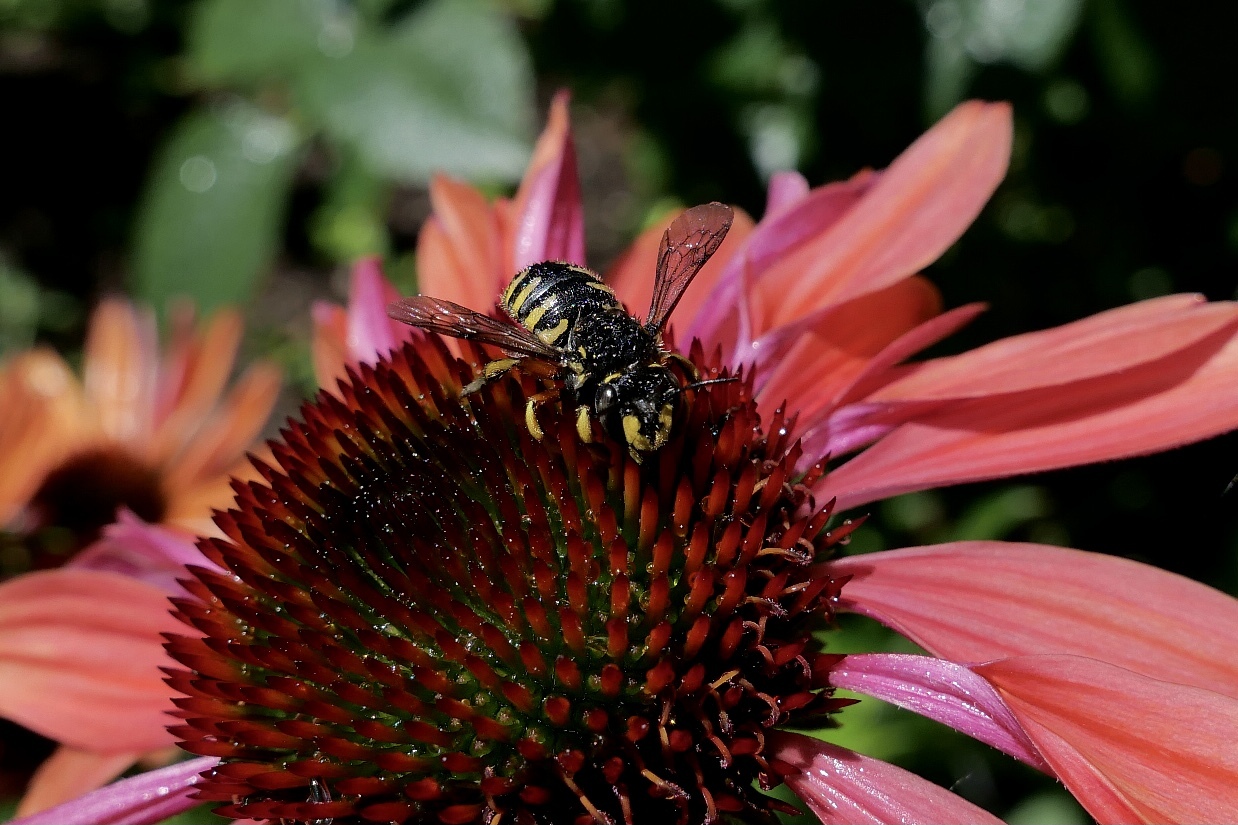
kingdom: Animalia
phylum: Arthropoda
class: Insecta
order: Hymenoptera
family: Megachilidae
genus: Anthidium
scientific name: Anthidium manicatum
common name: Wool carder bee
